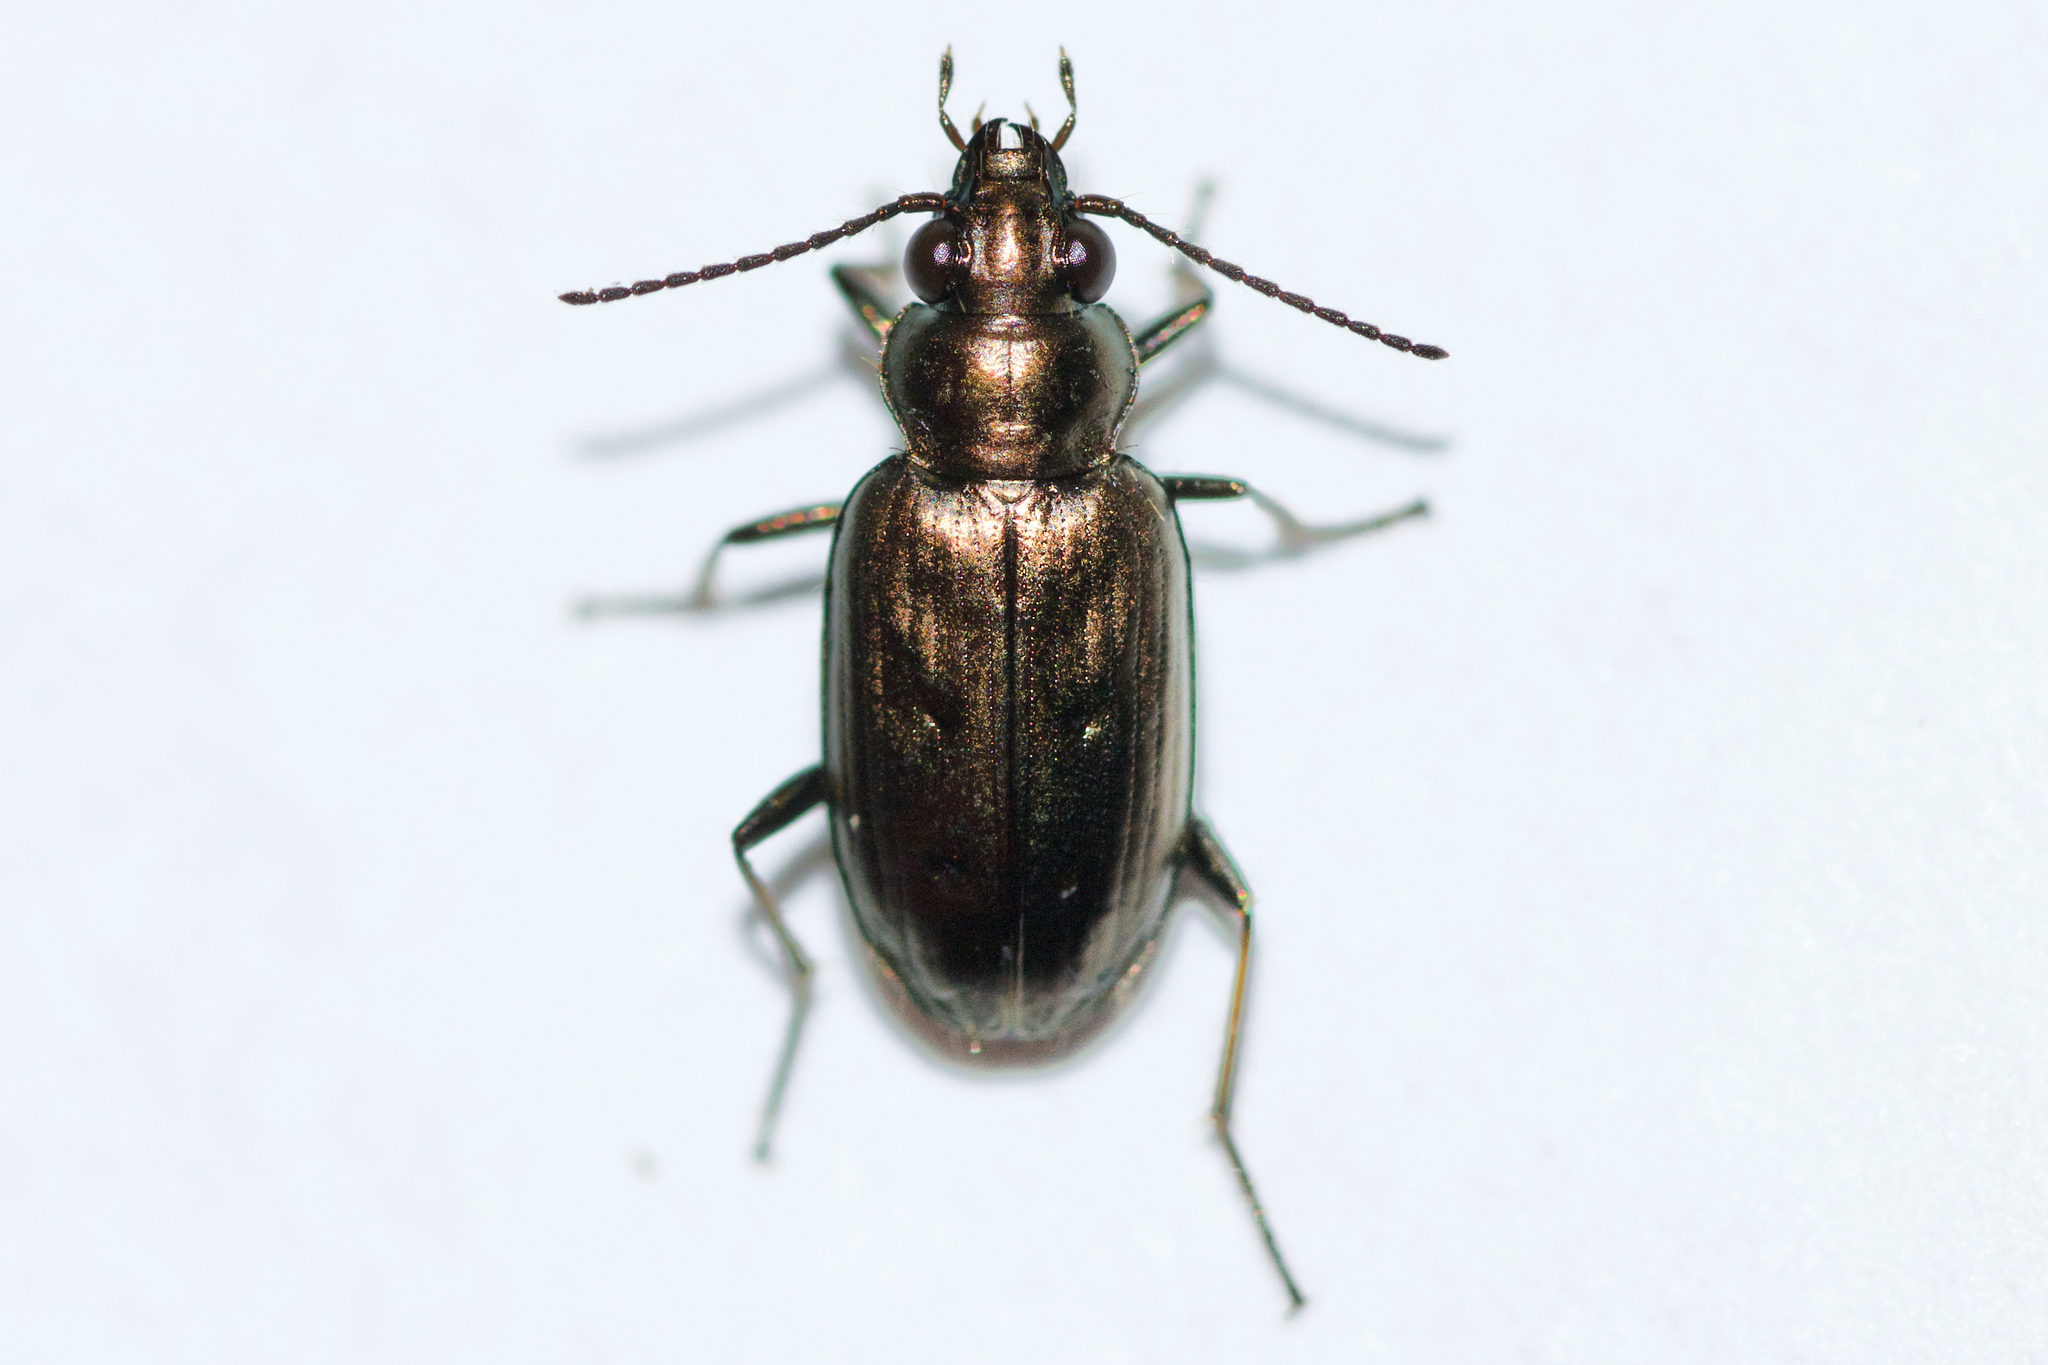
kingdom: Animalia
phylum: Arthropoda
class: Insecta
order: Coleoptera
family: Carabidae
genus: Bembidion
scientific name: Bembidion cheyennense
